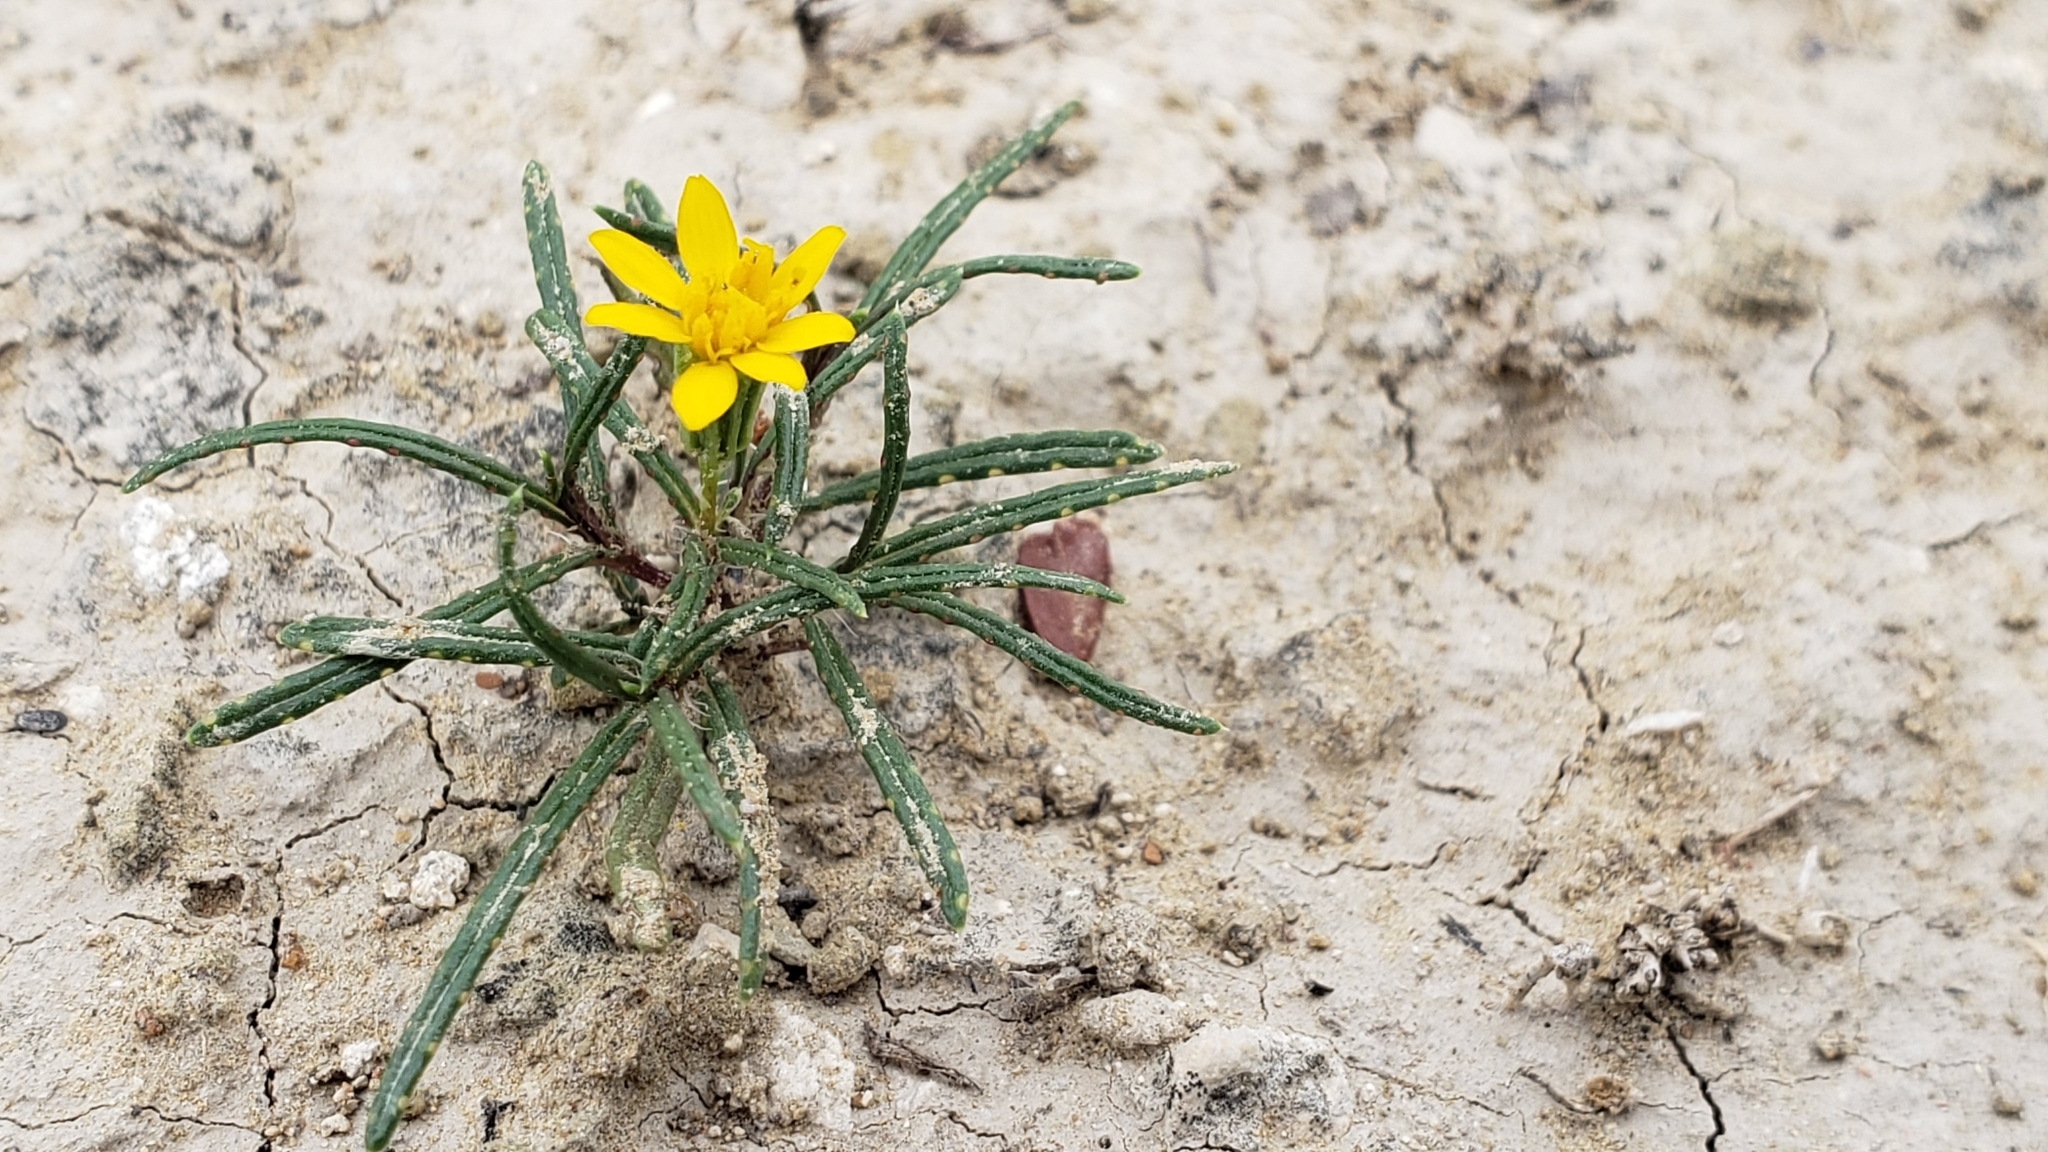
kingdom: Plantae
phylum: Tracheophyta
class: Magnoliopsida
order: Asterales
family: Asteraceae
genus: Pectis
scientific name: Pectis angustifolia
